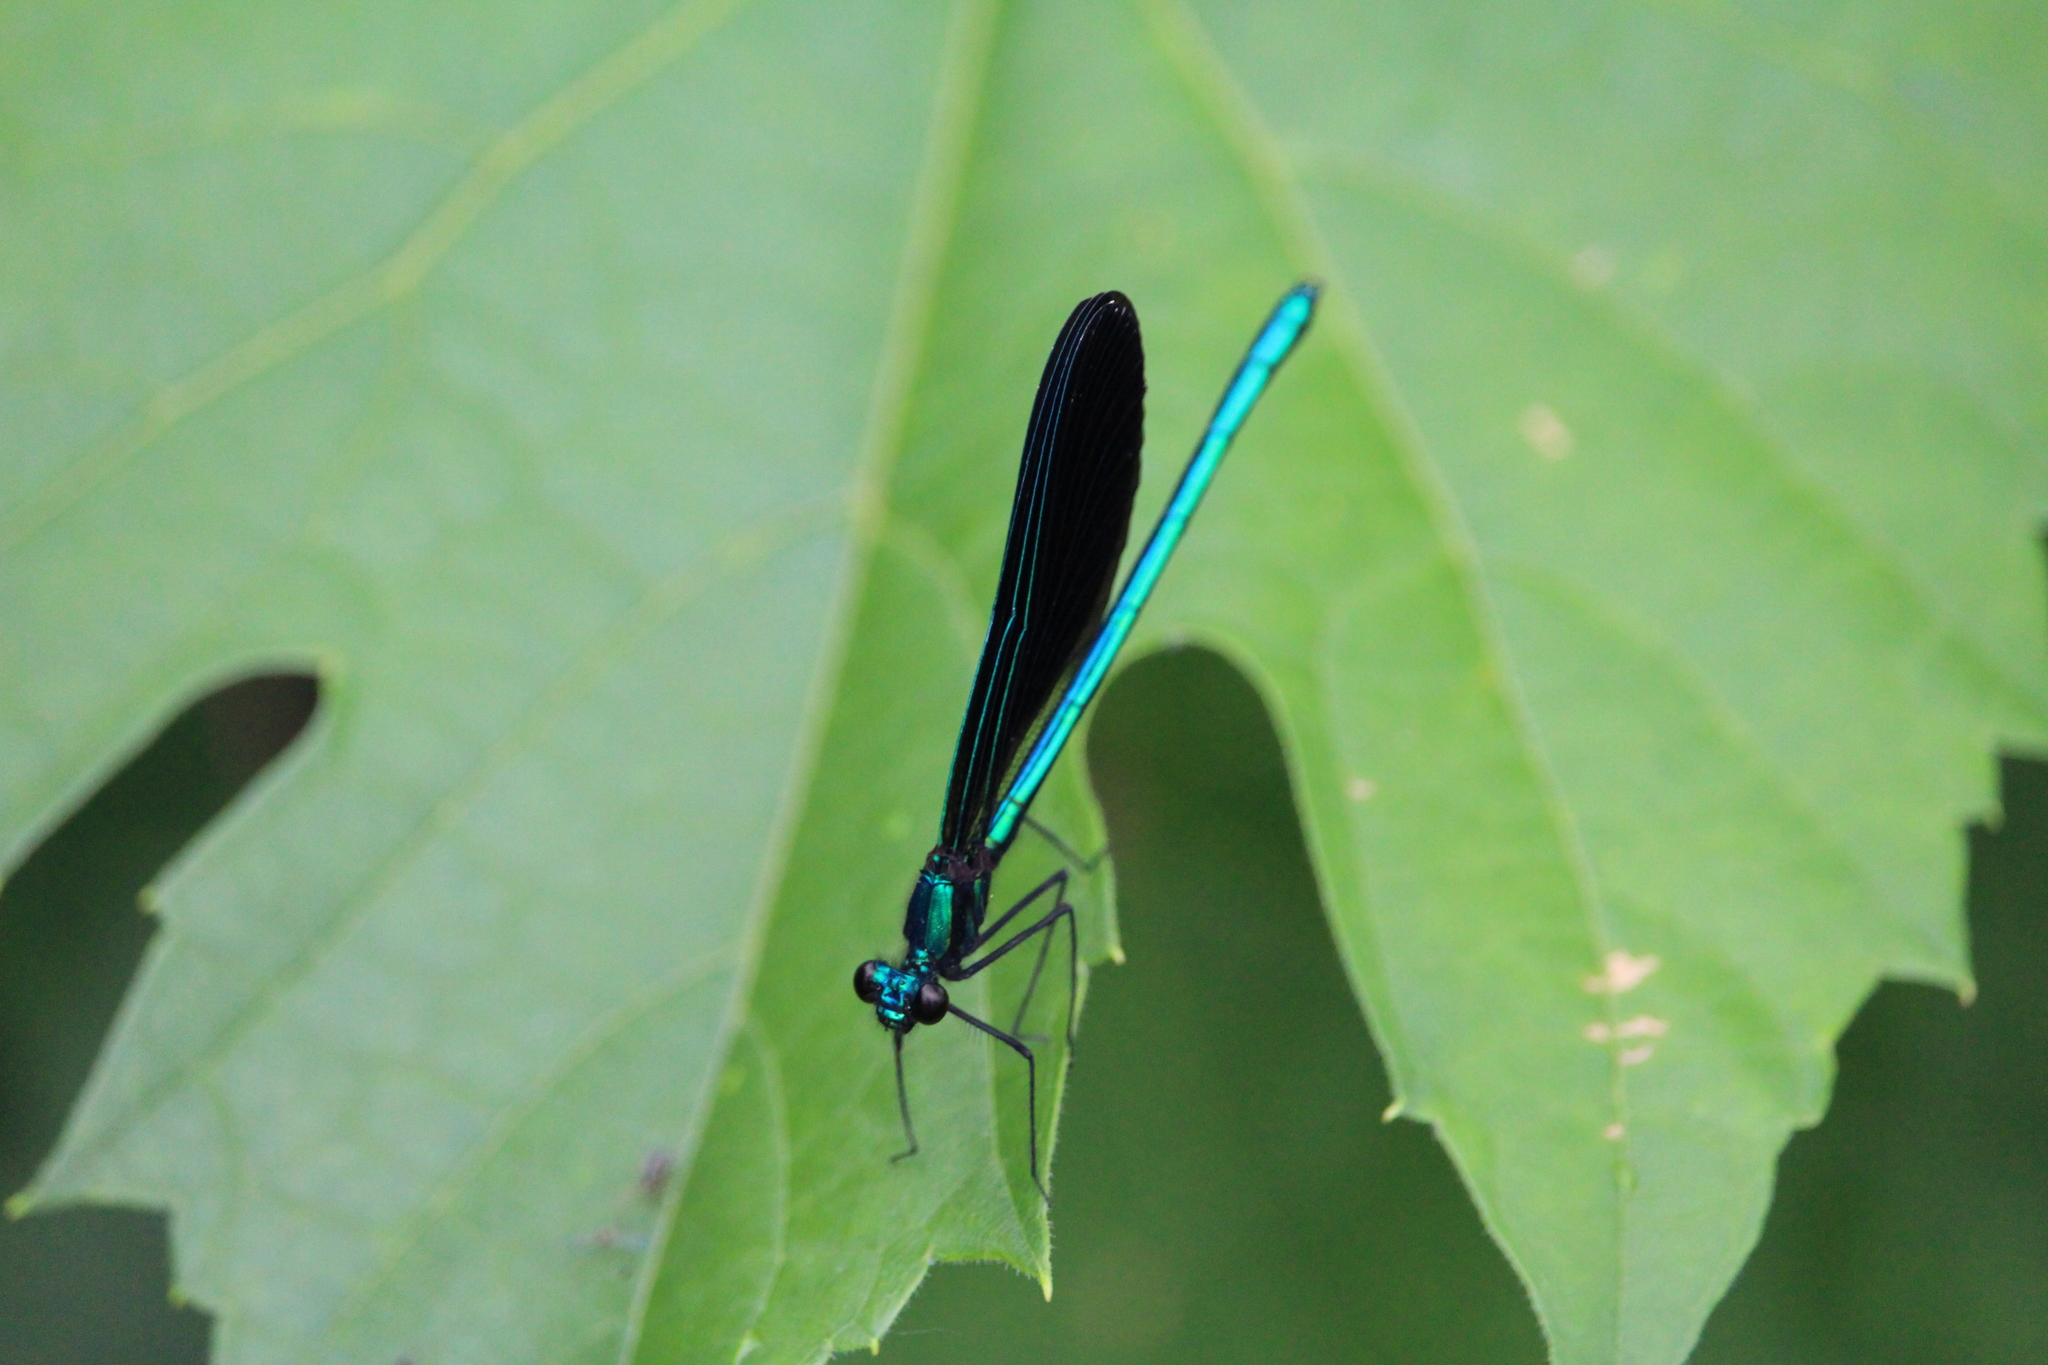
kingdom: Animalia
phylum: Arthropoda
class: Insecta
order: Odonata
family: Calopterygidae
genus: Calopteryx
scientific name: Calopteryx maculata
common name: Ebony jewelwing
